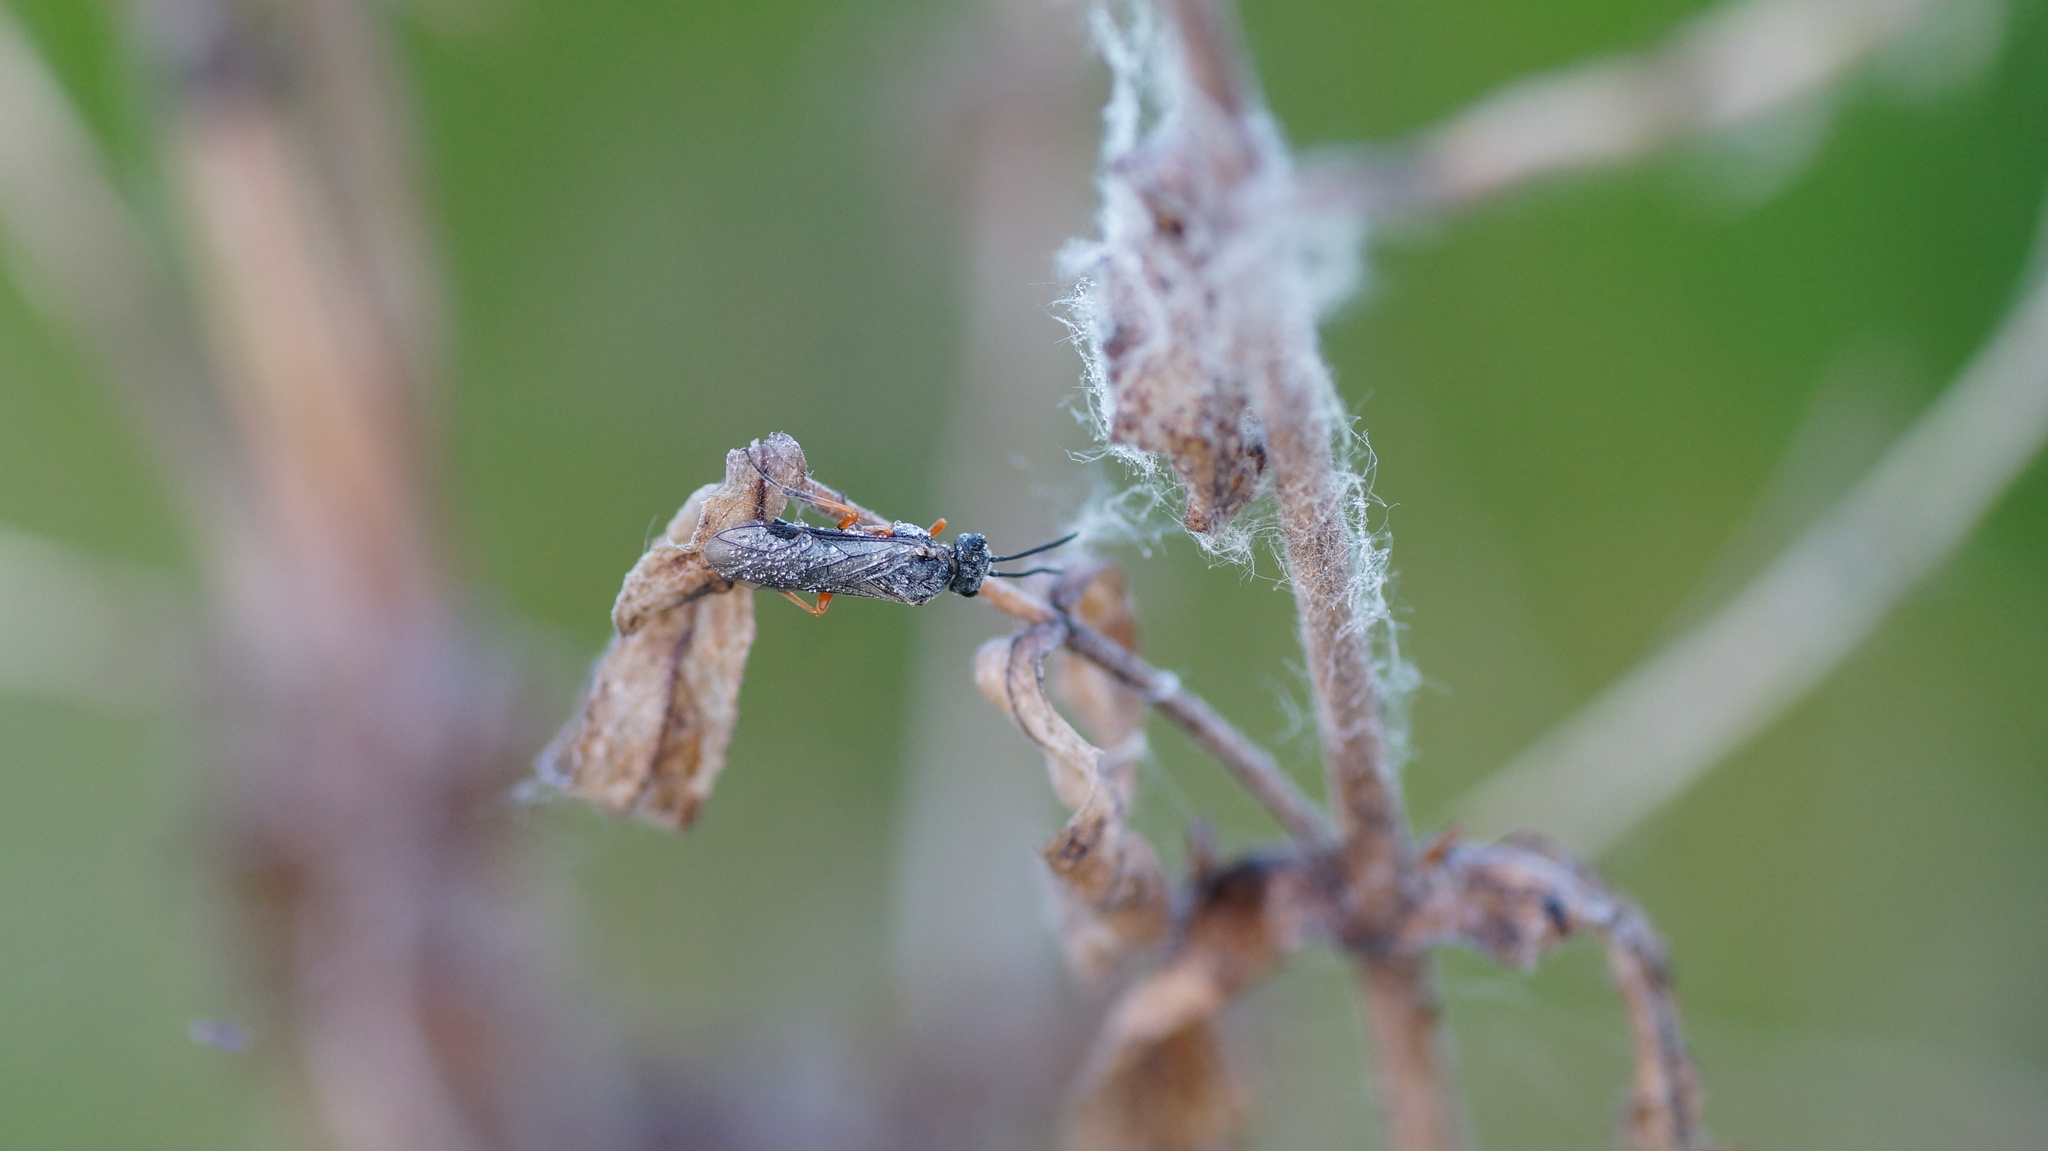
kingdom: Animalia
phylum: Arthropoda
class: Insecta
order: Hymenoptera
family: Tenthredinidae
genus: Dolerus
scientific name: Dolerus vestigialis
